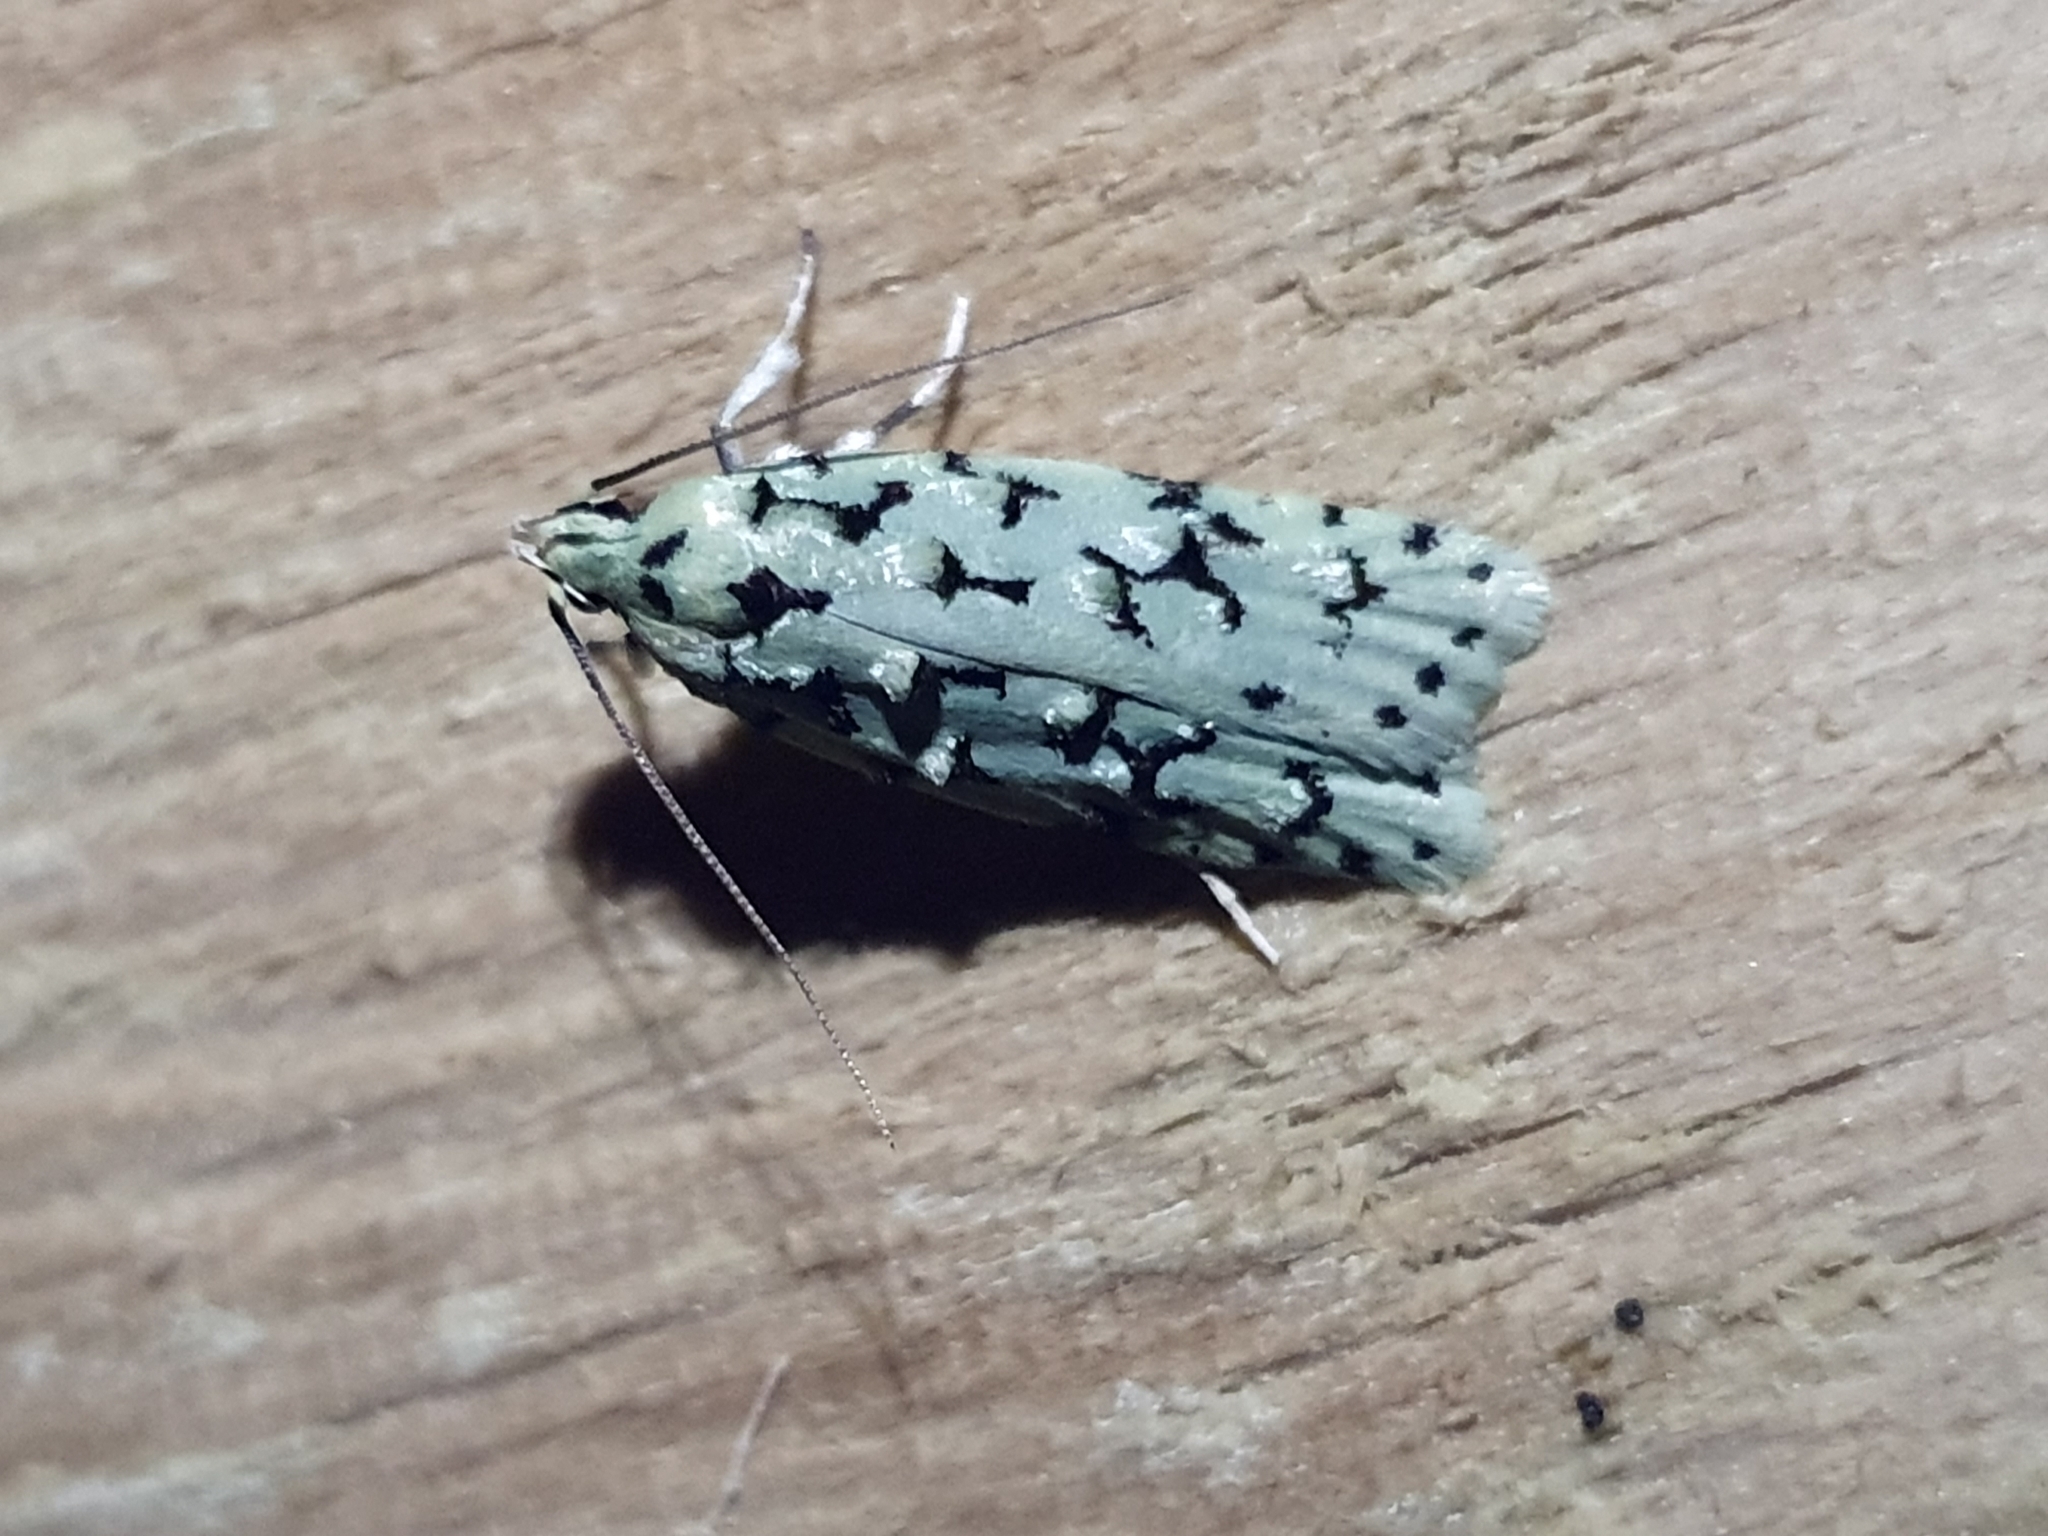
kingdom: Animalia
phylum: Arthropoda
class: Insecta
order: Lepidoptera
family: Oecophoridae
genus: Izatha
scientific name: Izatha huttoni
